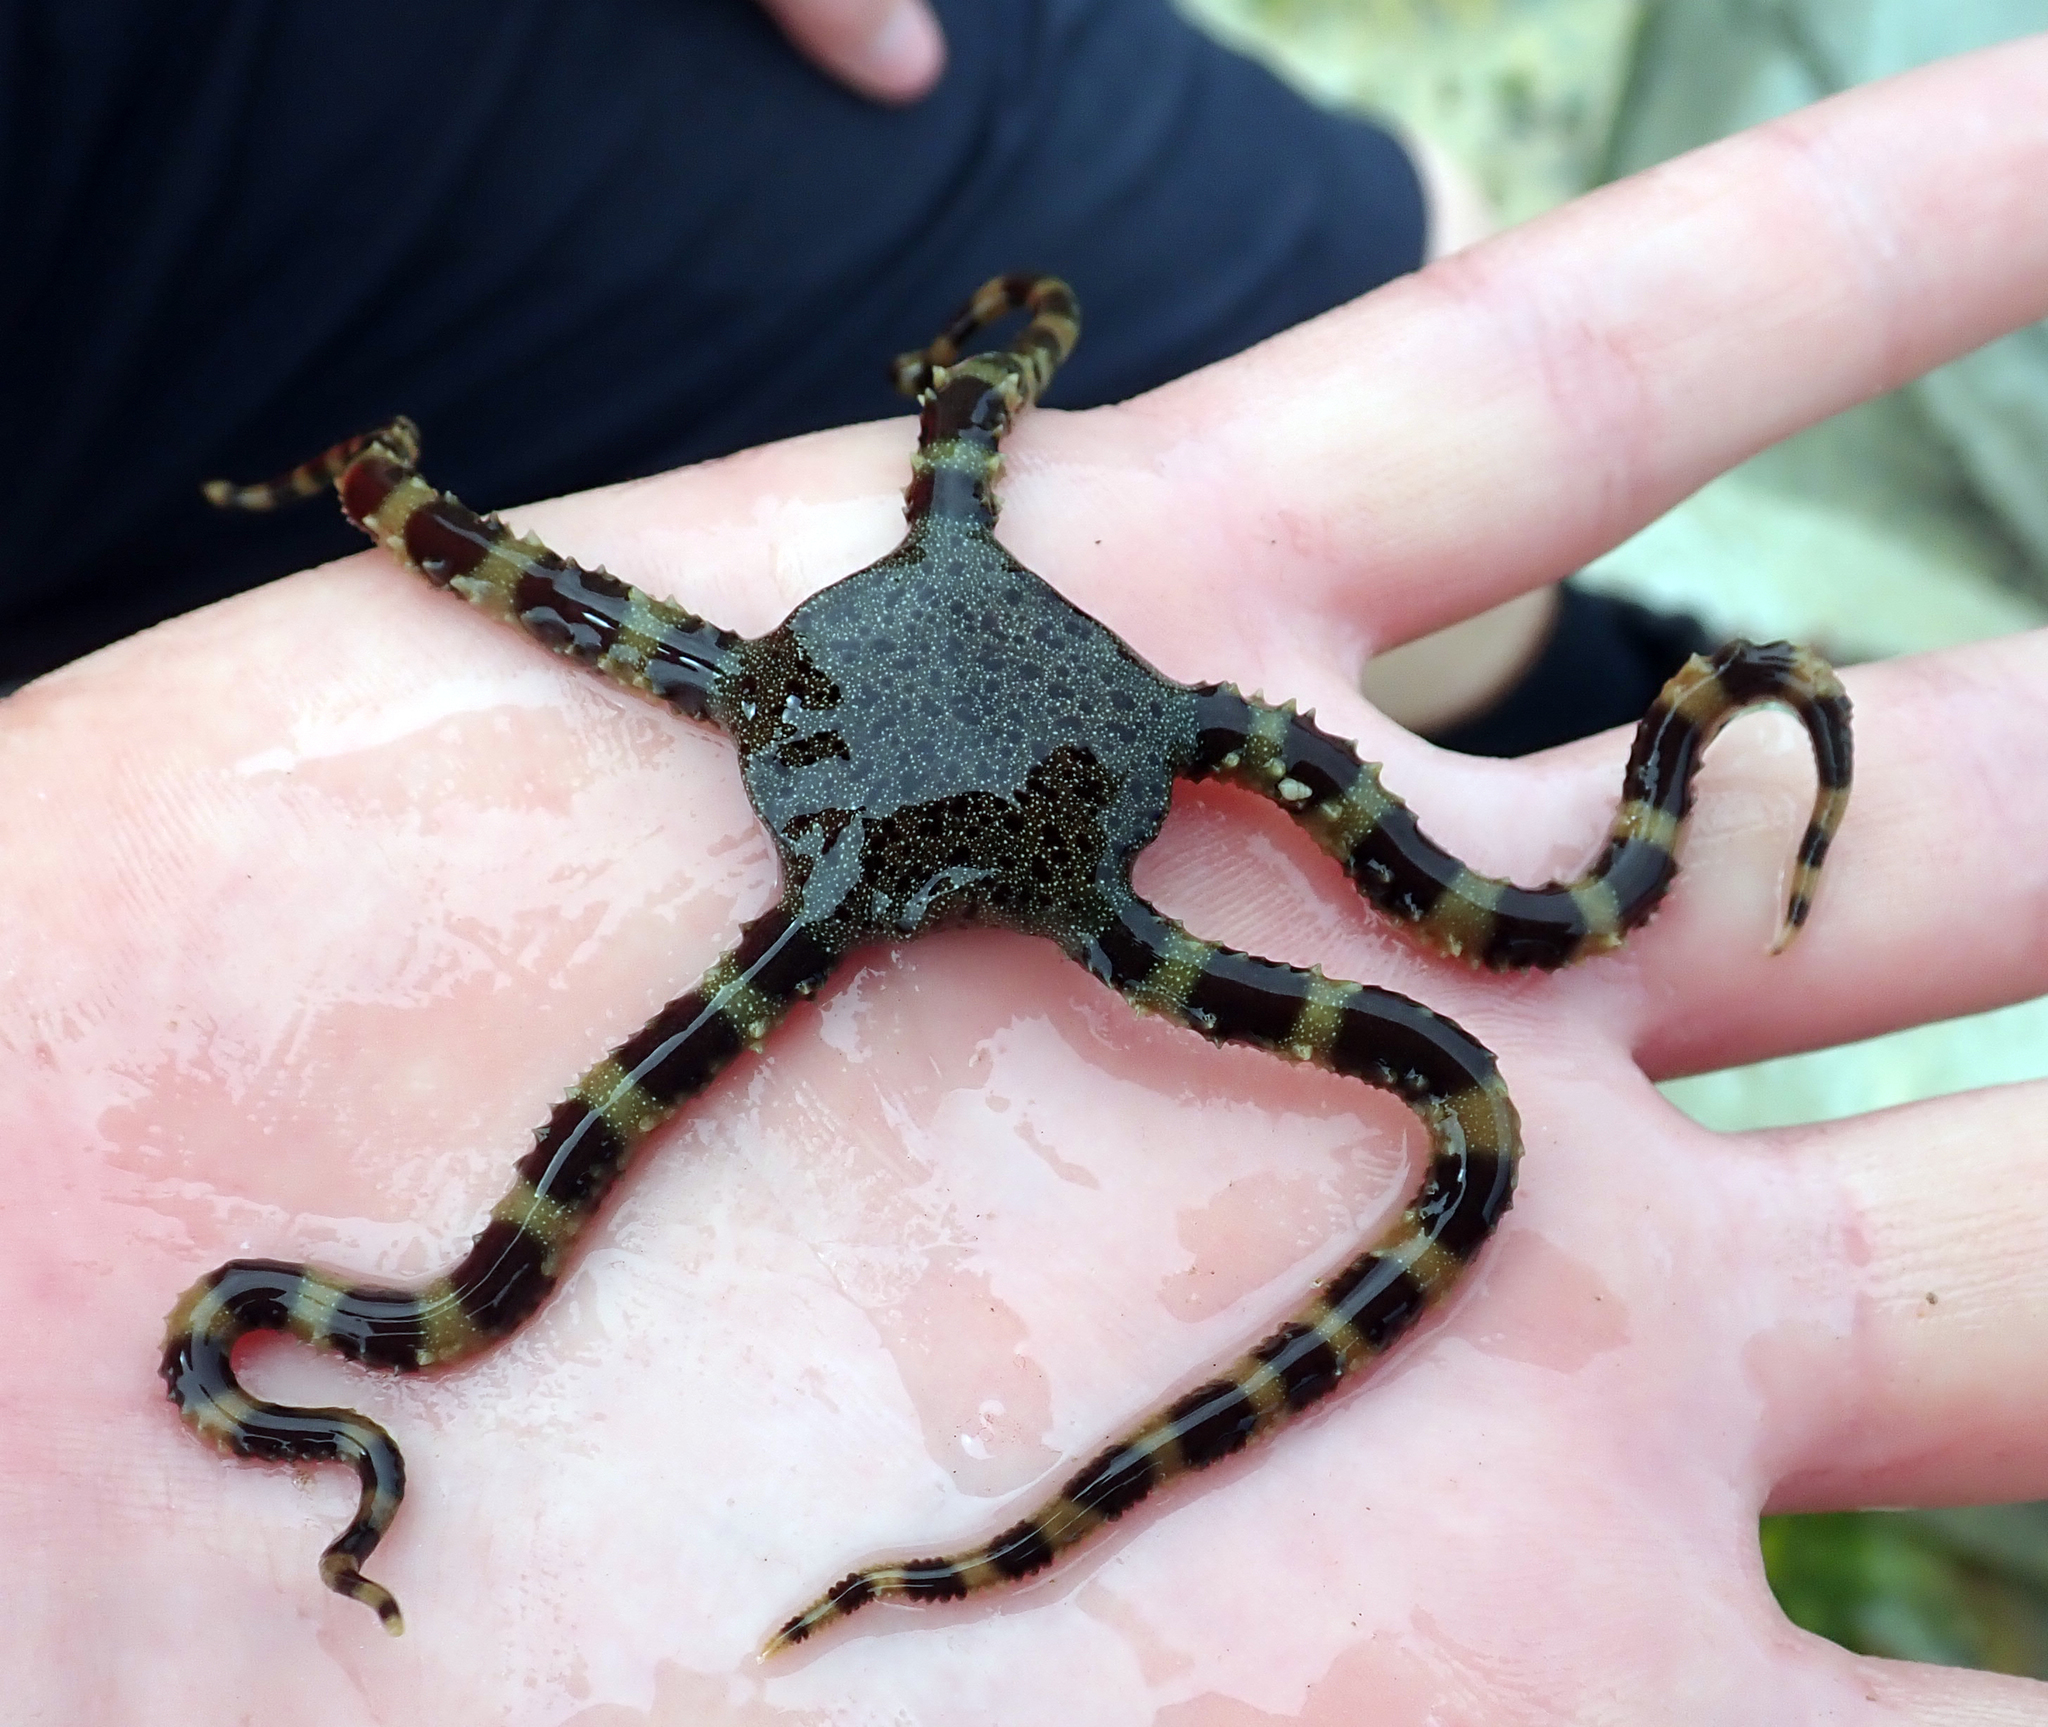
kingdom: Animalia
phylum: Echinodermata
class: Ophiuroidea
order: Ophiacanthida
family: Ophiomyxidae
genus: Ophiomyxa
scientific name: Ophiomyxa brevirima
